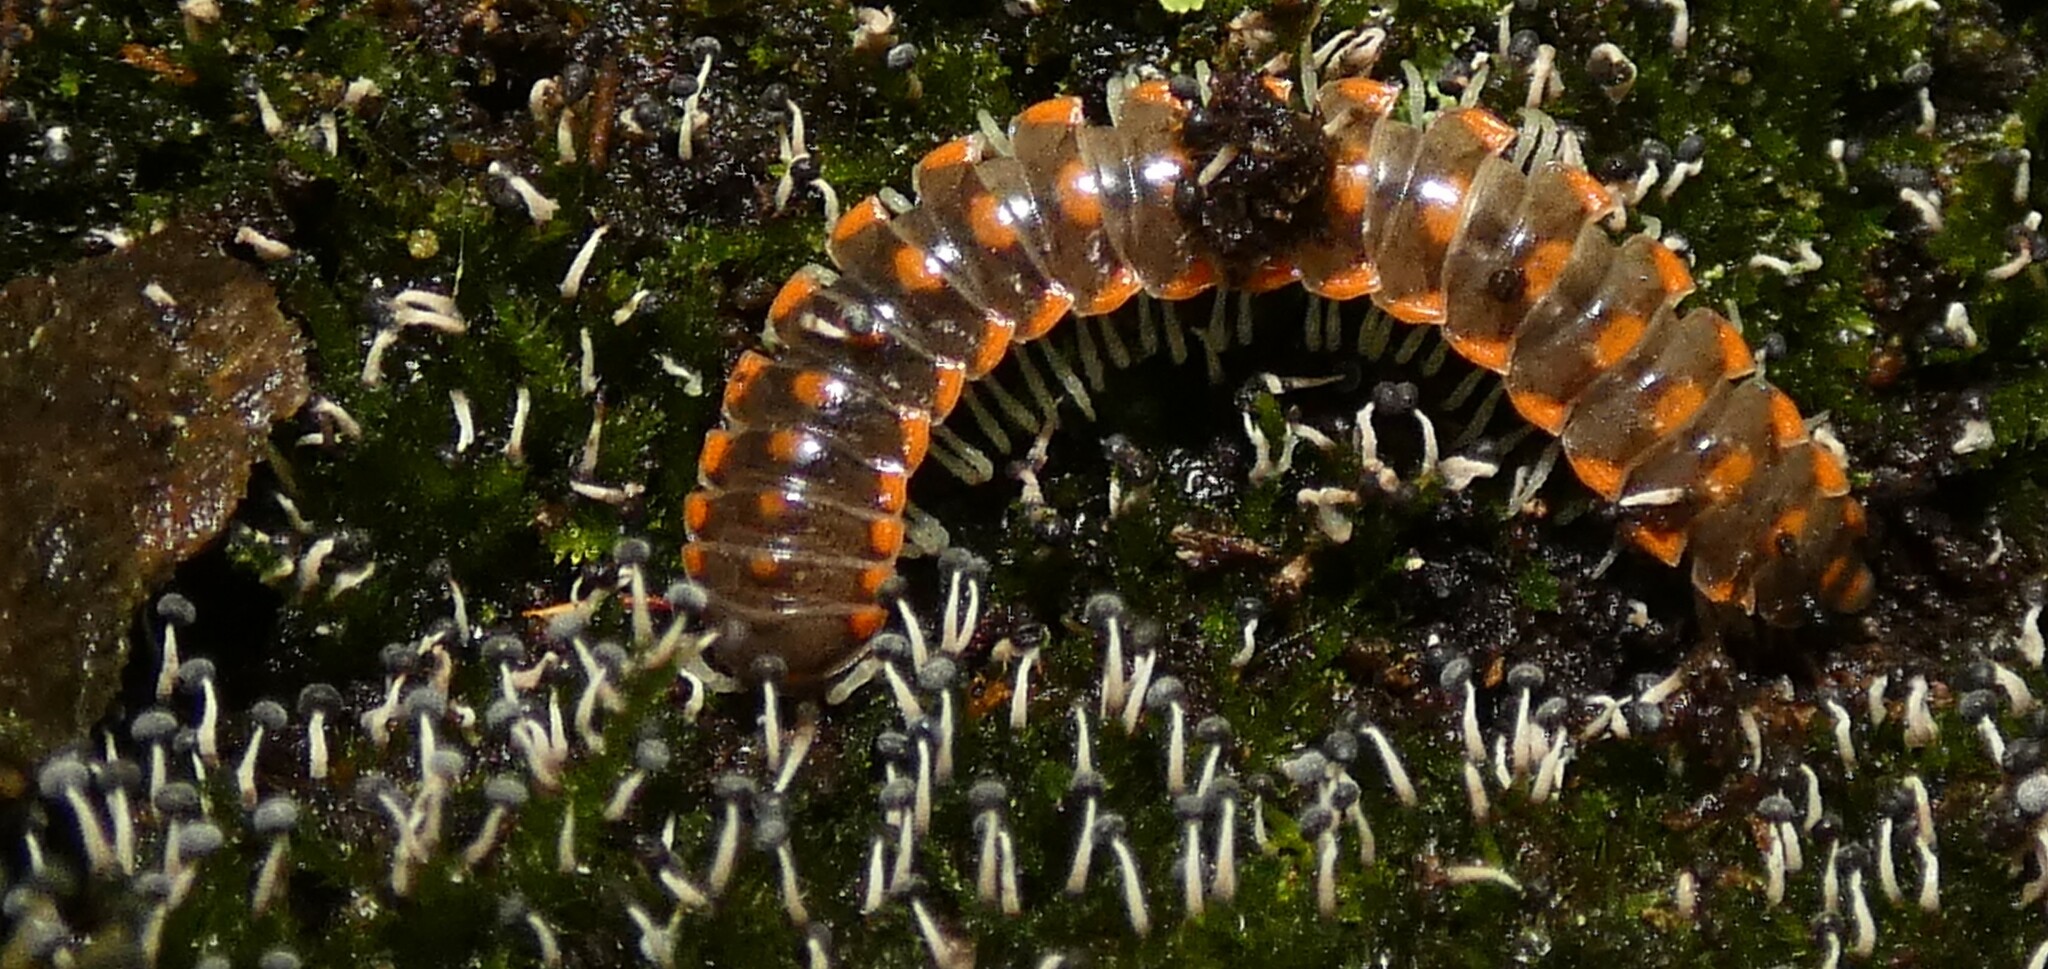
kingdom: Animalia
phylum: Arthropoda
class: Diplopoda
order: Polydesmida
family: Xystodesmidae
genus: Euryurus
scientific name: Euryurus erythropygos
